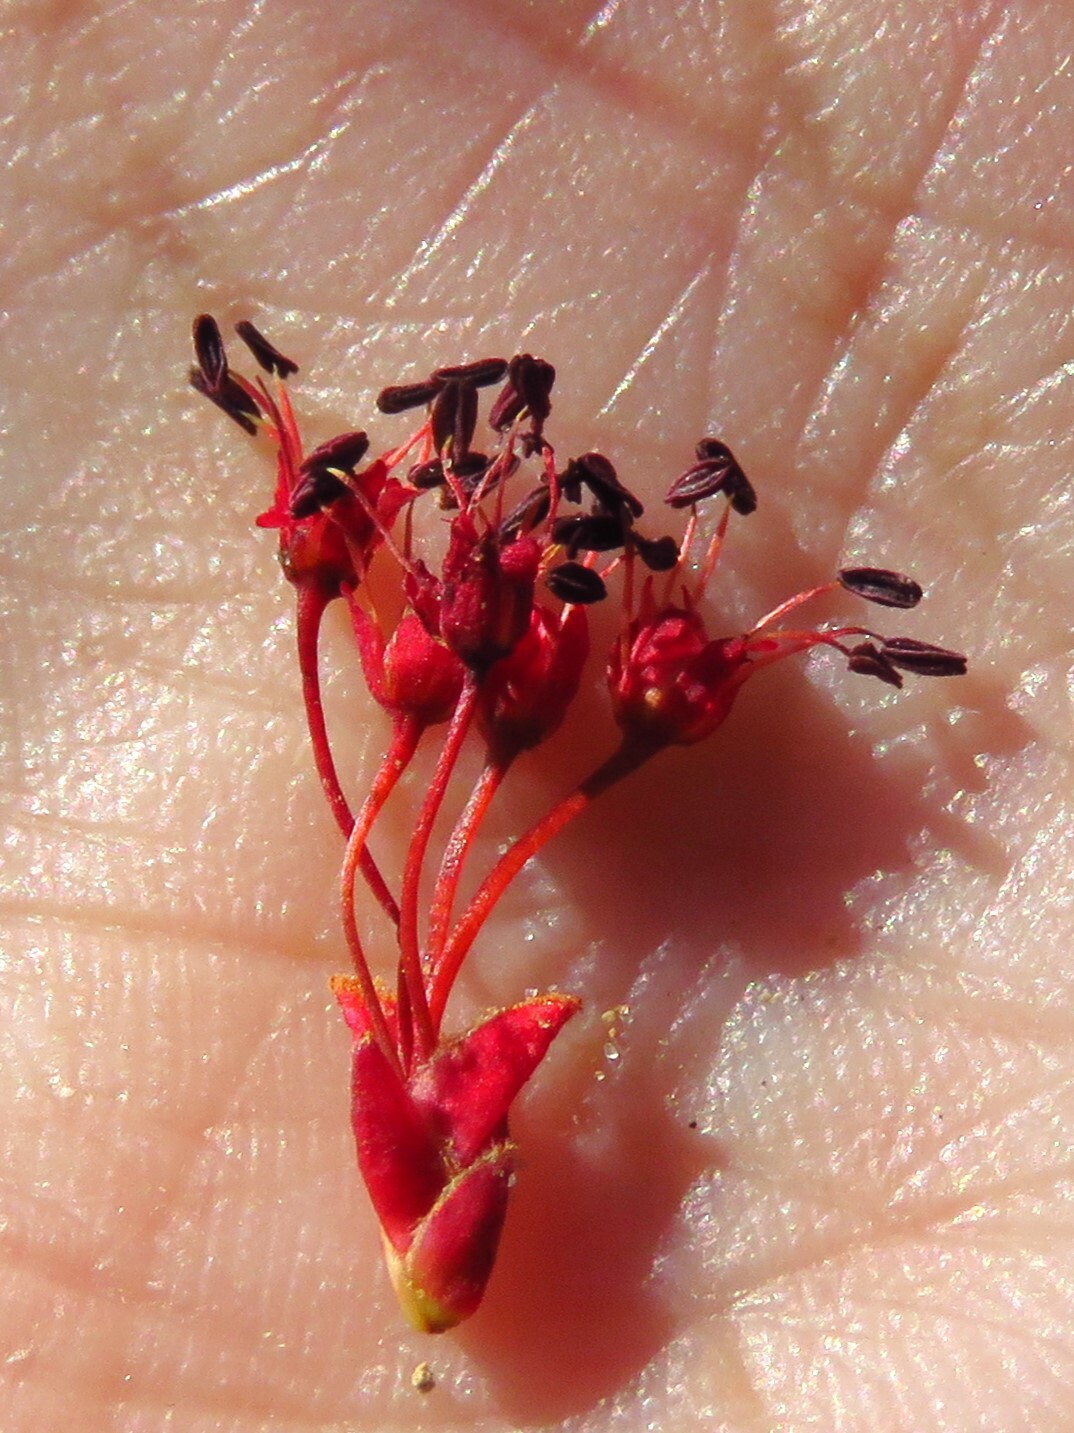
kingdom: Plantae
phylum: Tracheophyta
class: Magnoliopsida
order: Sapindales
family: Sapindaceae
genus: Acer
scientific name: Acer rubrum
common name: Red maple
